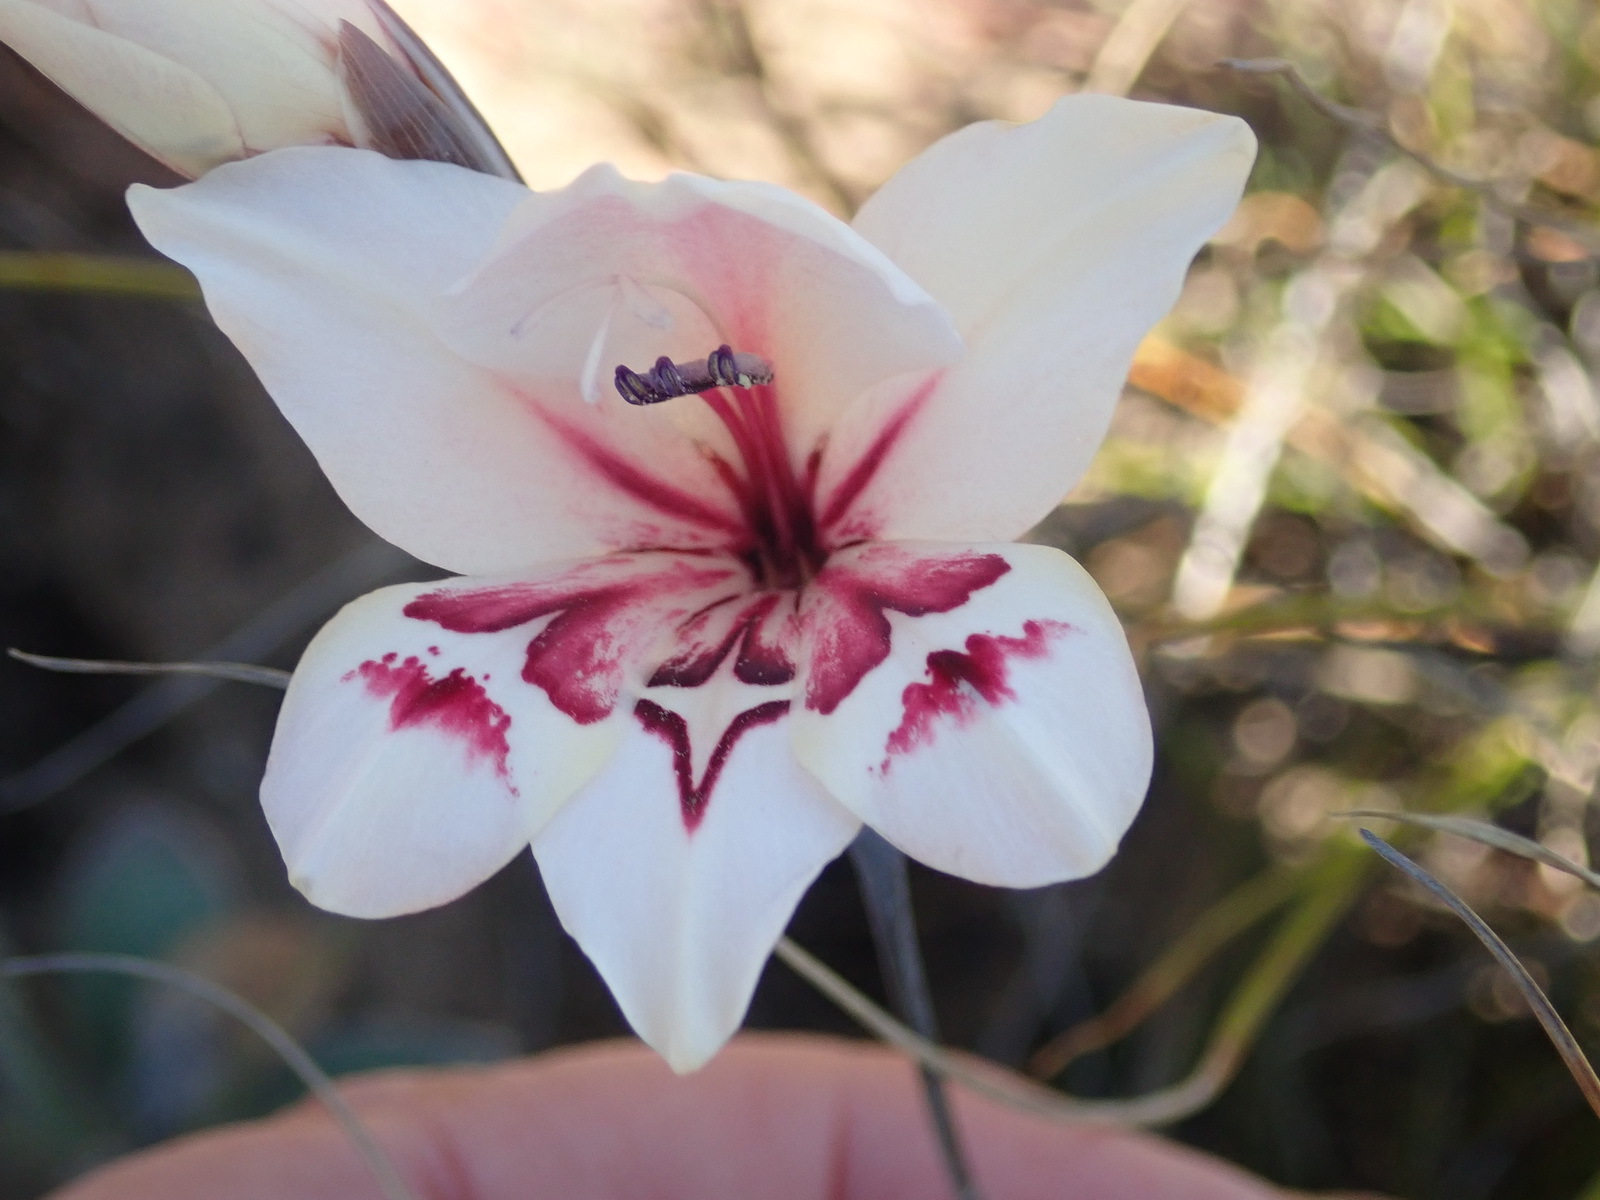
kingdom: Plantae
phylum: Tracheophyta
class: Liliopsida
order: Asparagales
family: Iridaceae
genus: Gladiolus
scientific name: Gladiolus debilis
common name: Painted-lady
